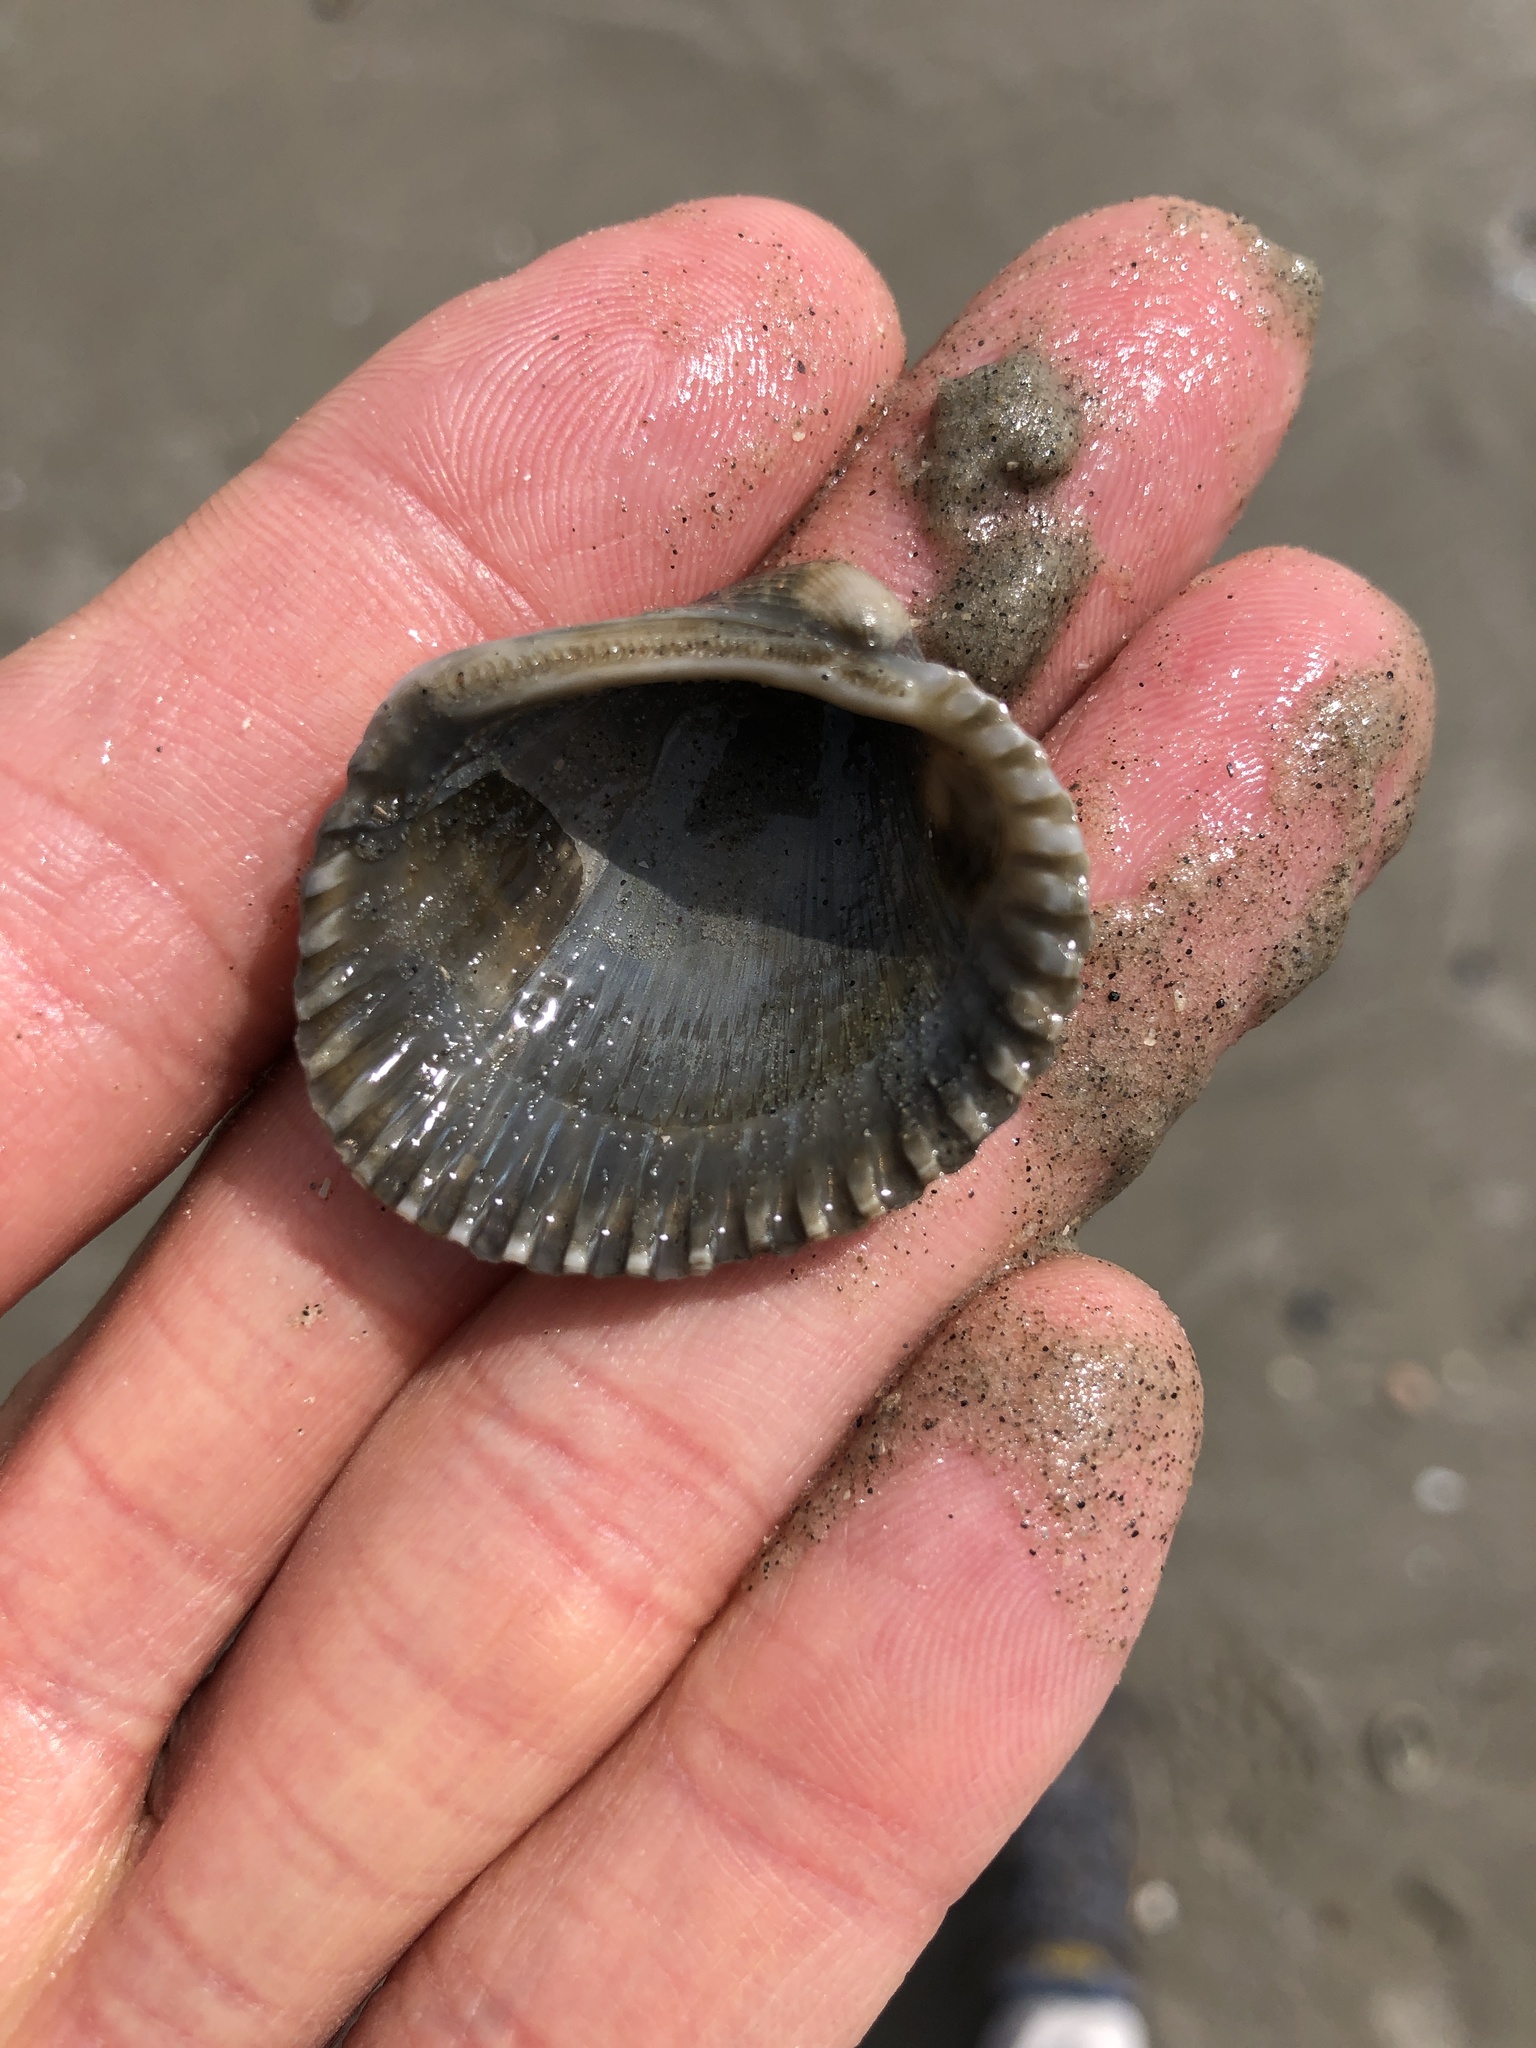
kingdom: Animalia
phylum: Mollusca
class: Bivalvia
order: Arcida
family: Arcidae
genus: Lunarca
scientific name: Lunarca ovalis
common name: Blood ark
